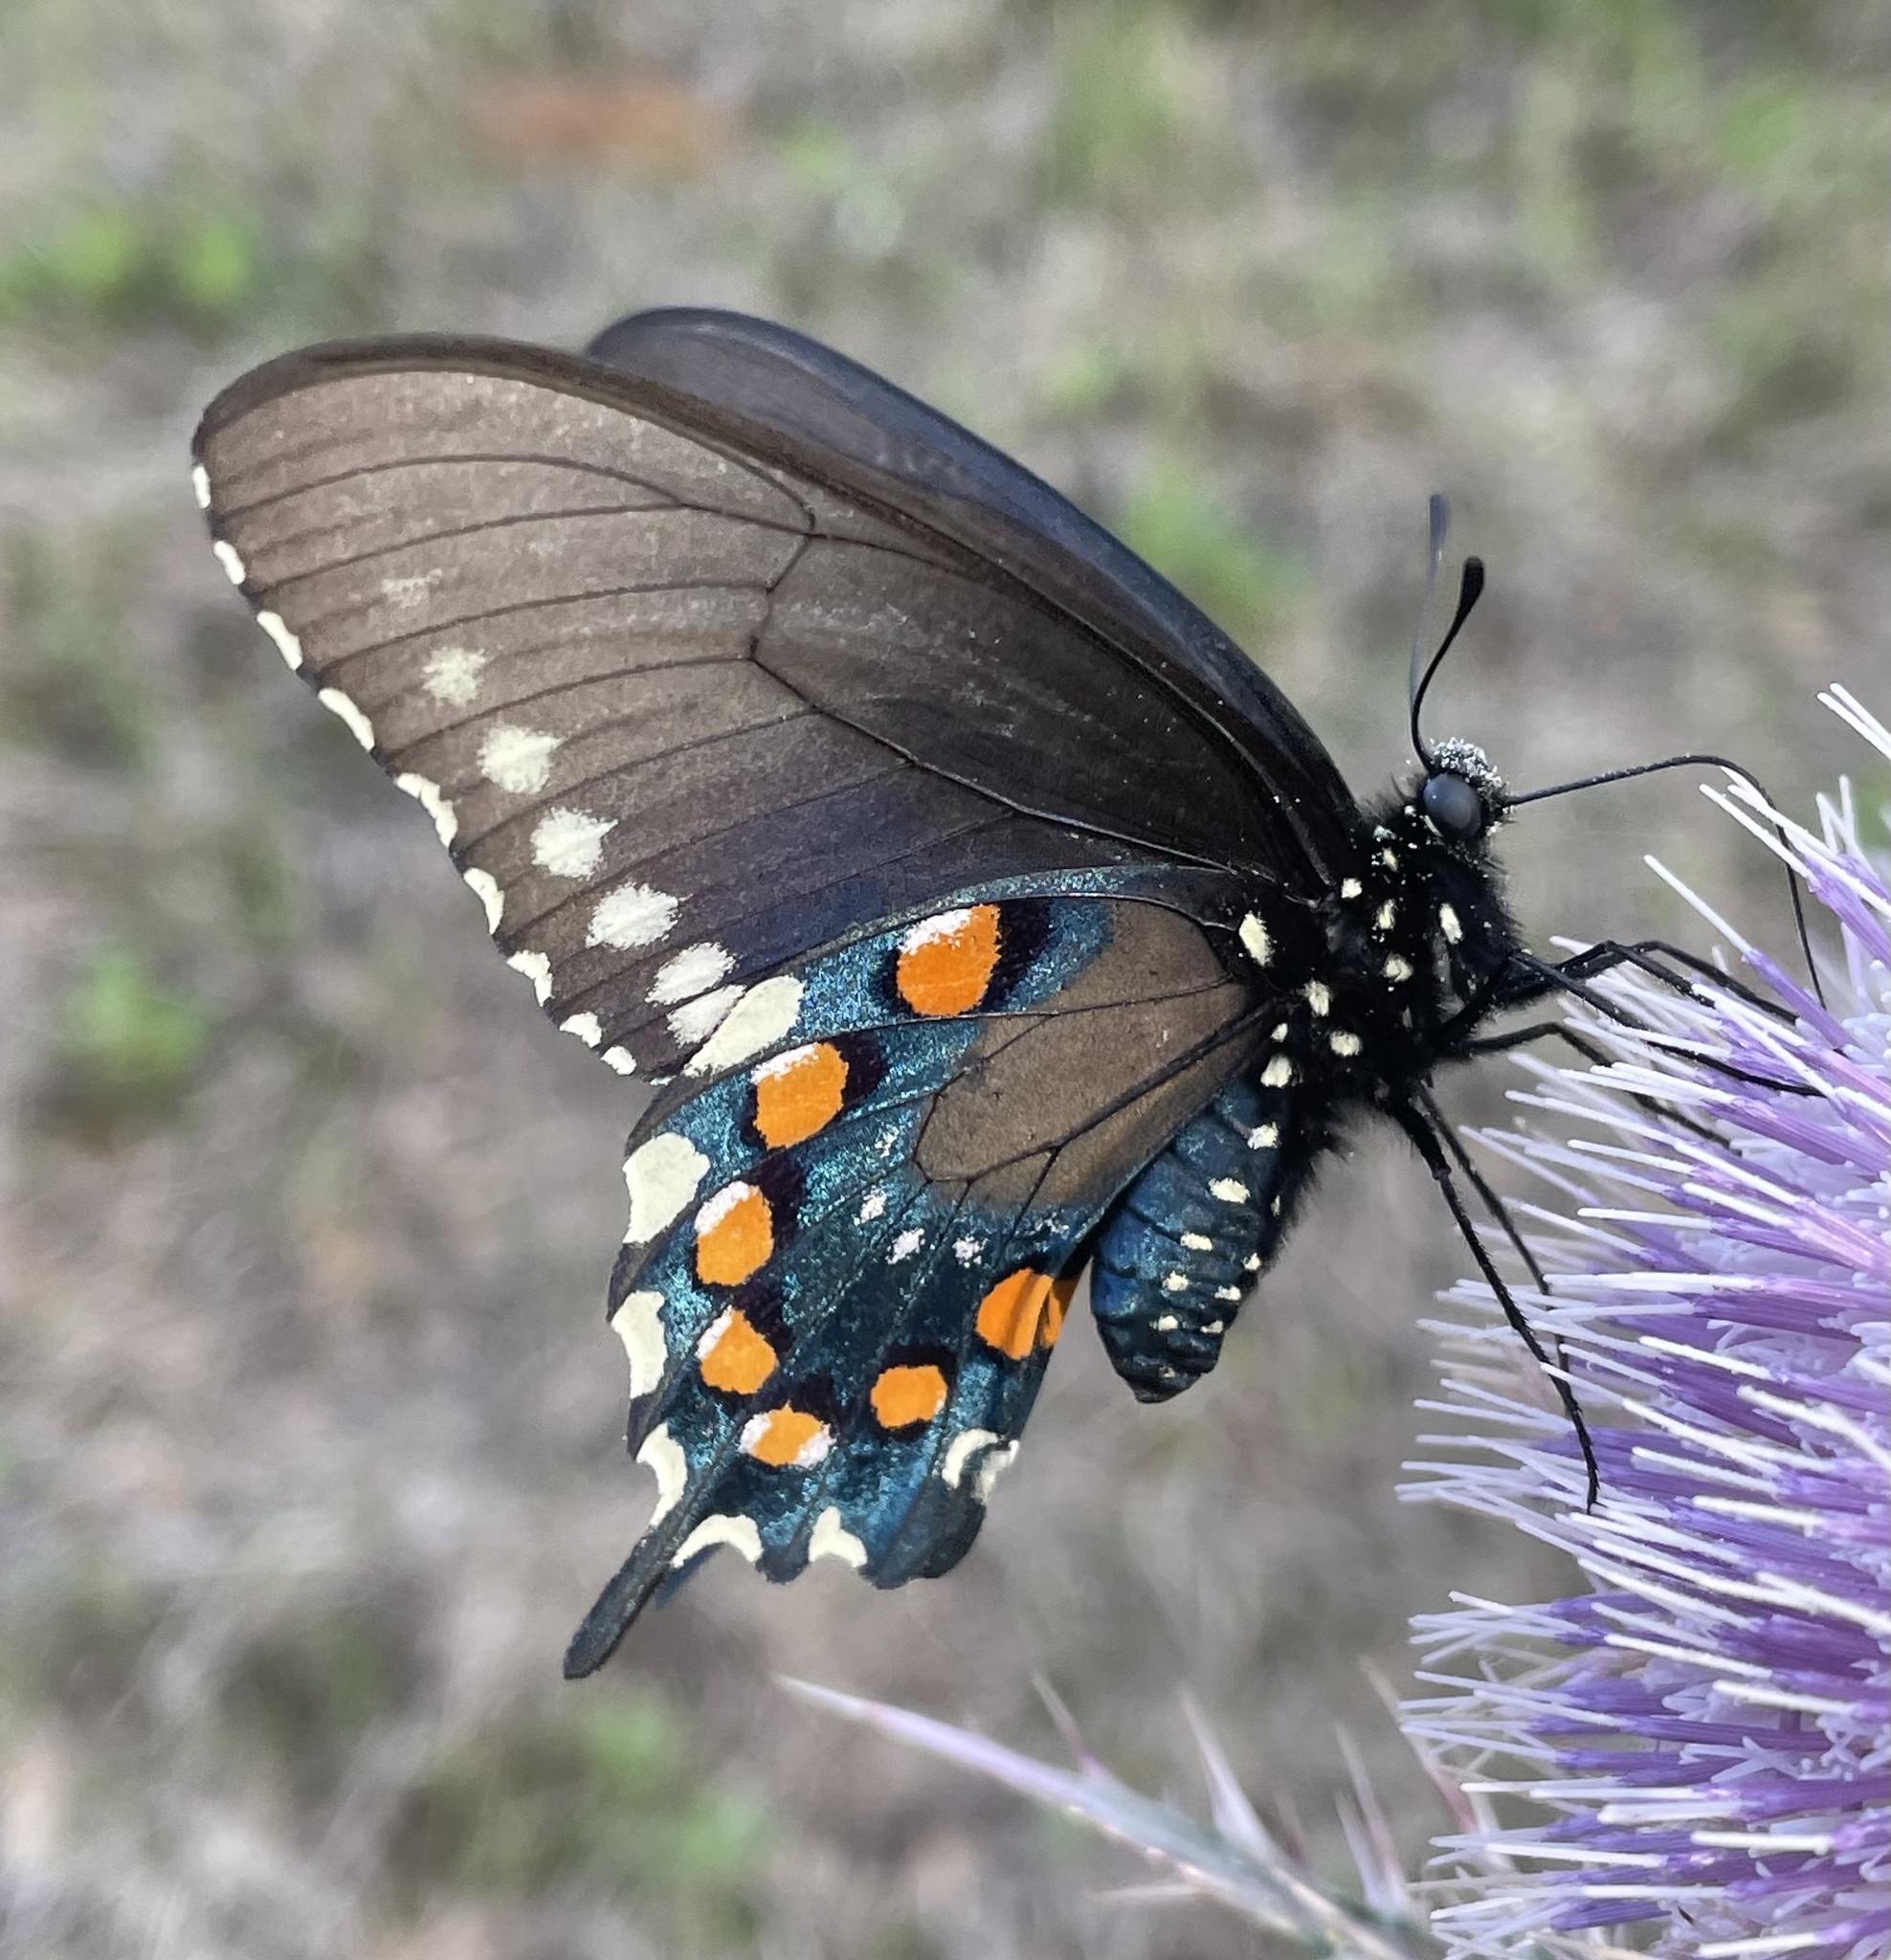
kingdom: Animalia
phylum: Arthropoda
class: Insecta
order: Lepidoptera
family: Papilionidae
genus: Battus
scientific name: Battus philenor
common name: Pipevine swallowtail
